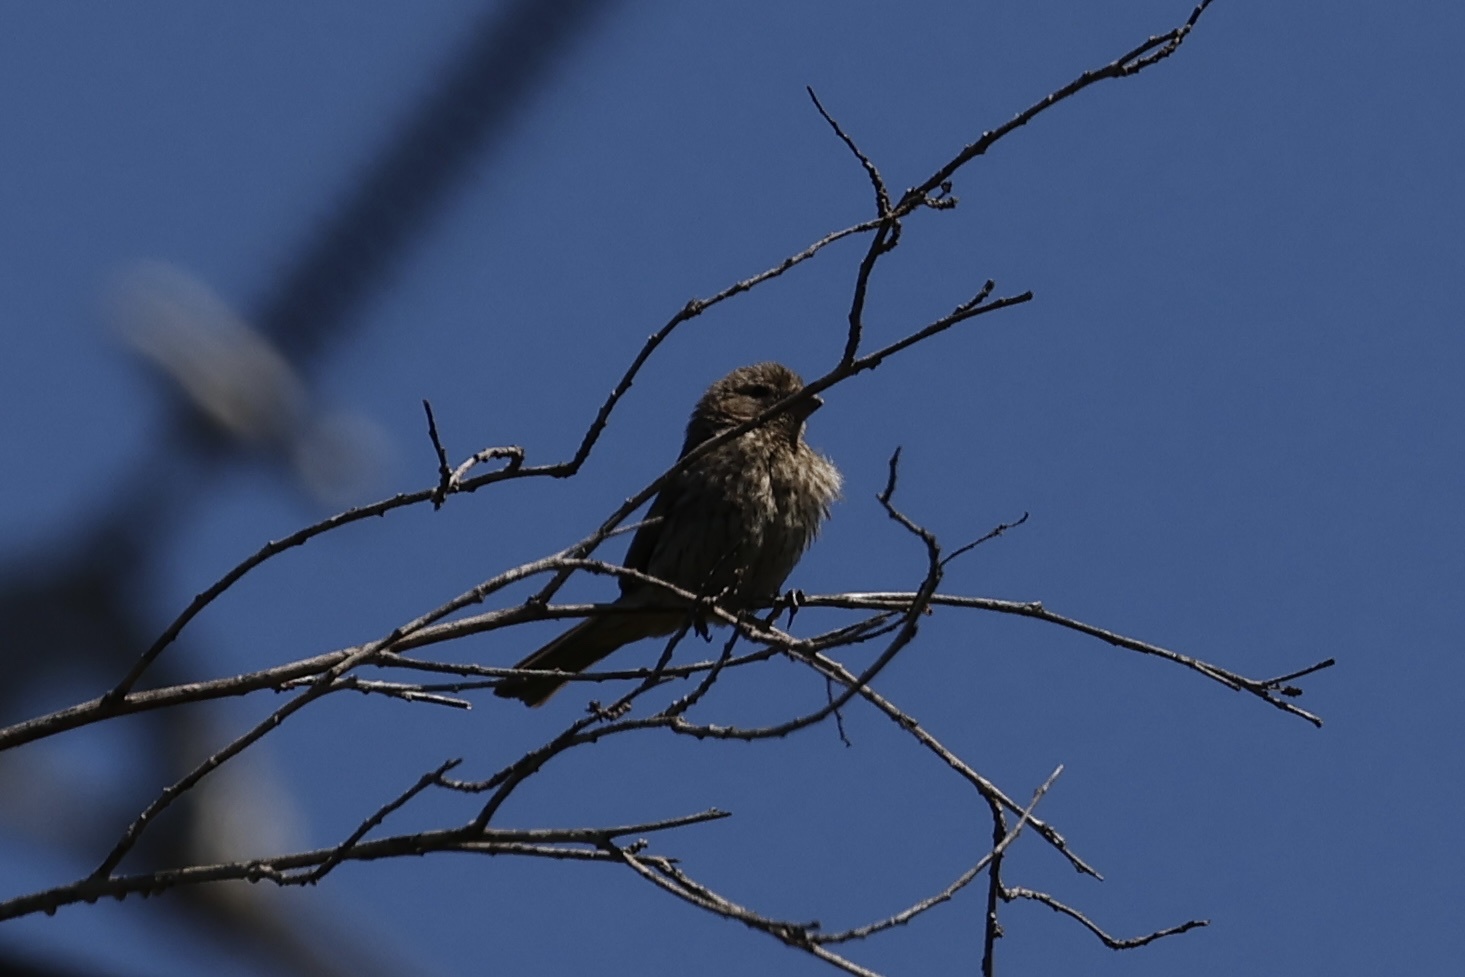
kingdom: Animalia
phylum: Chordata
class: Aves
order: Passeriformes
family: Fringillidae
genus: Haemorhous
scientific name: Haemorhous mexicanus
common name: House finch
